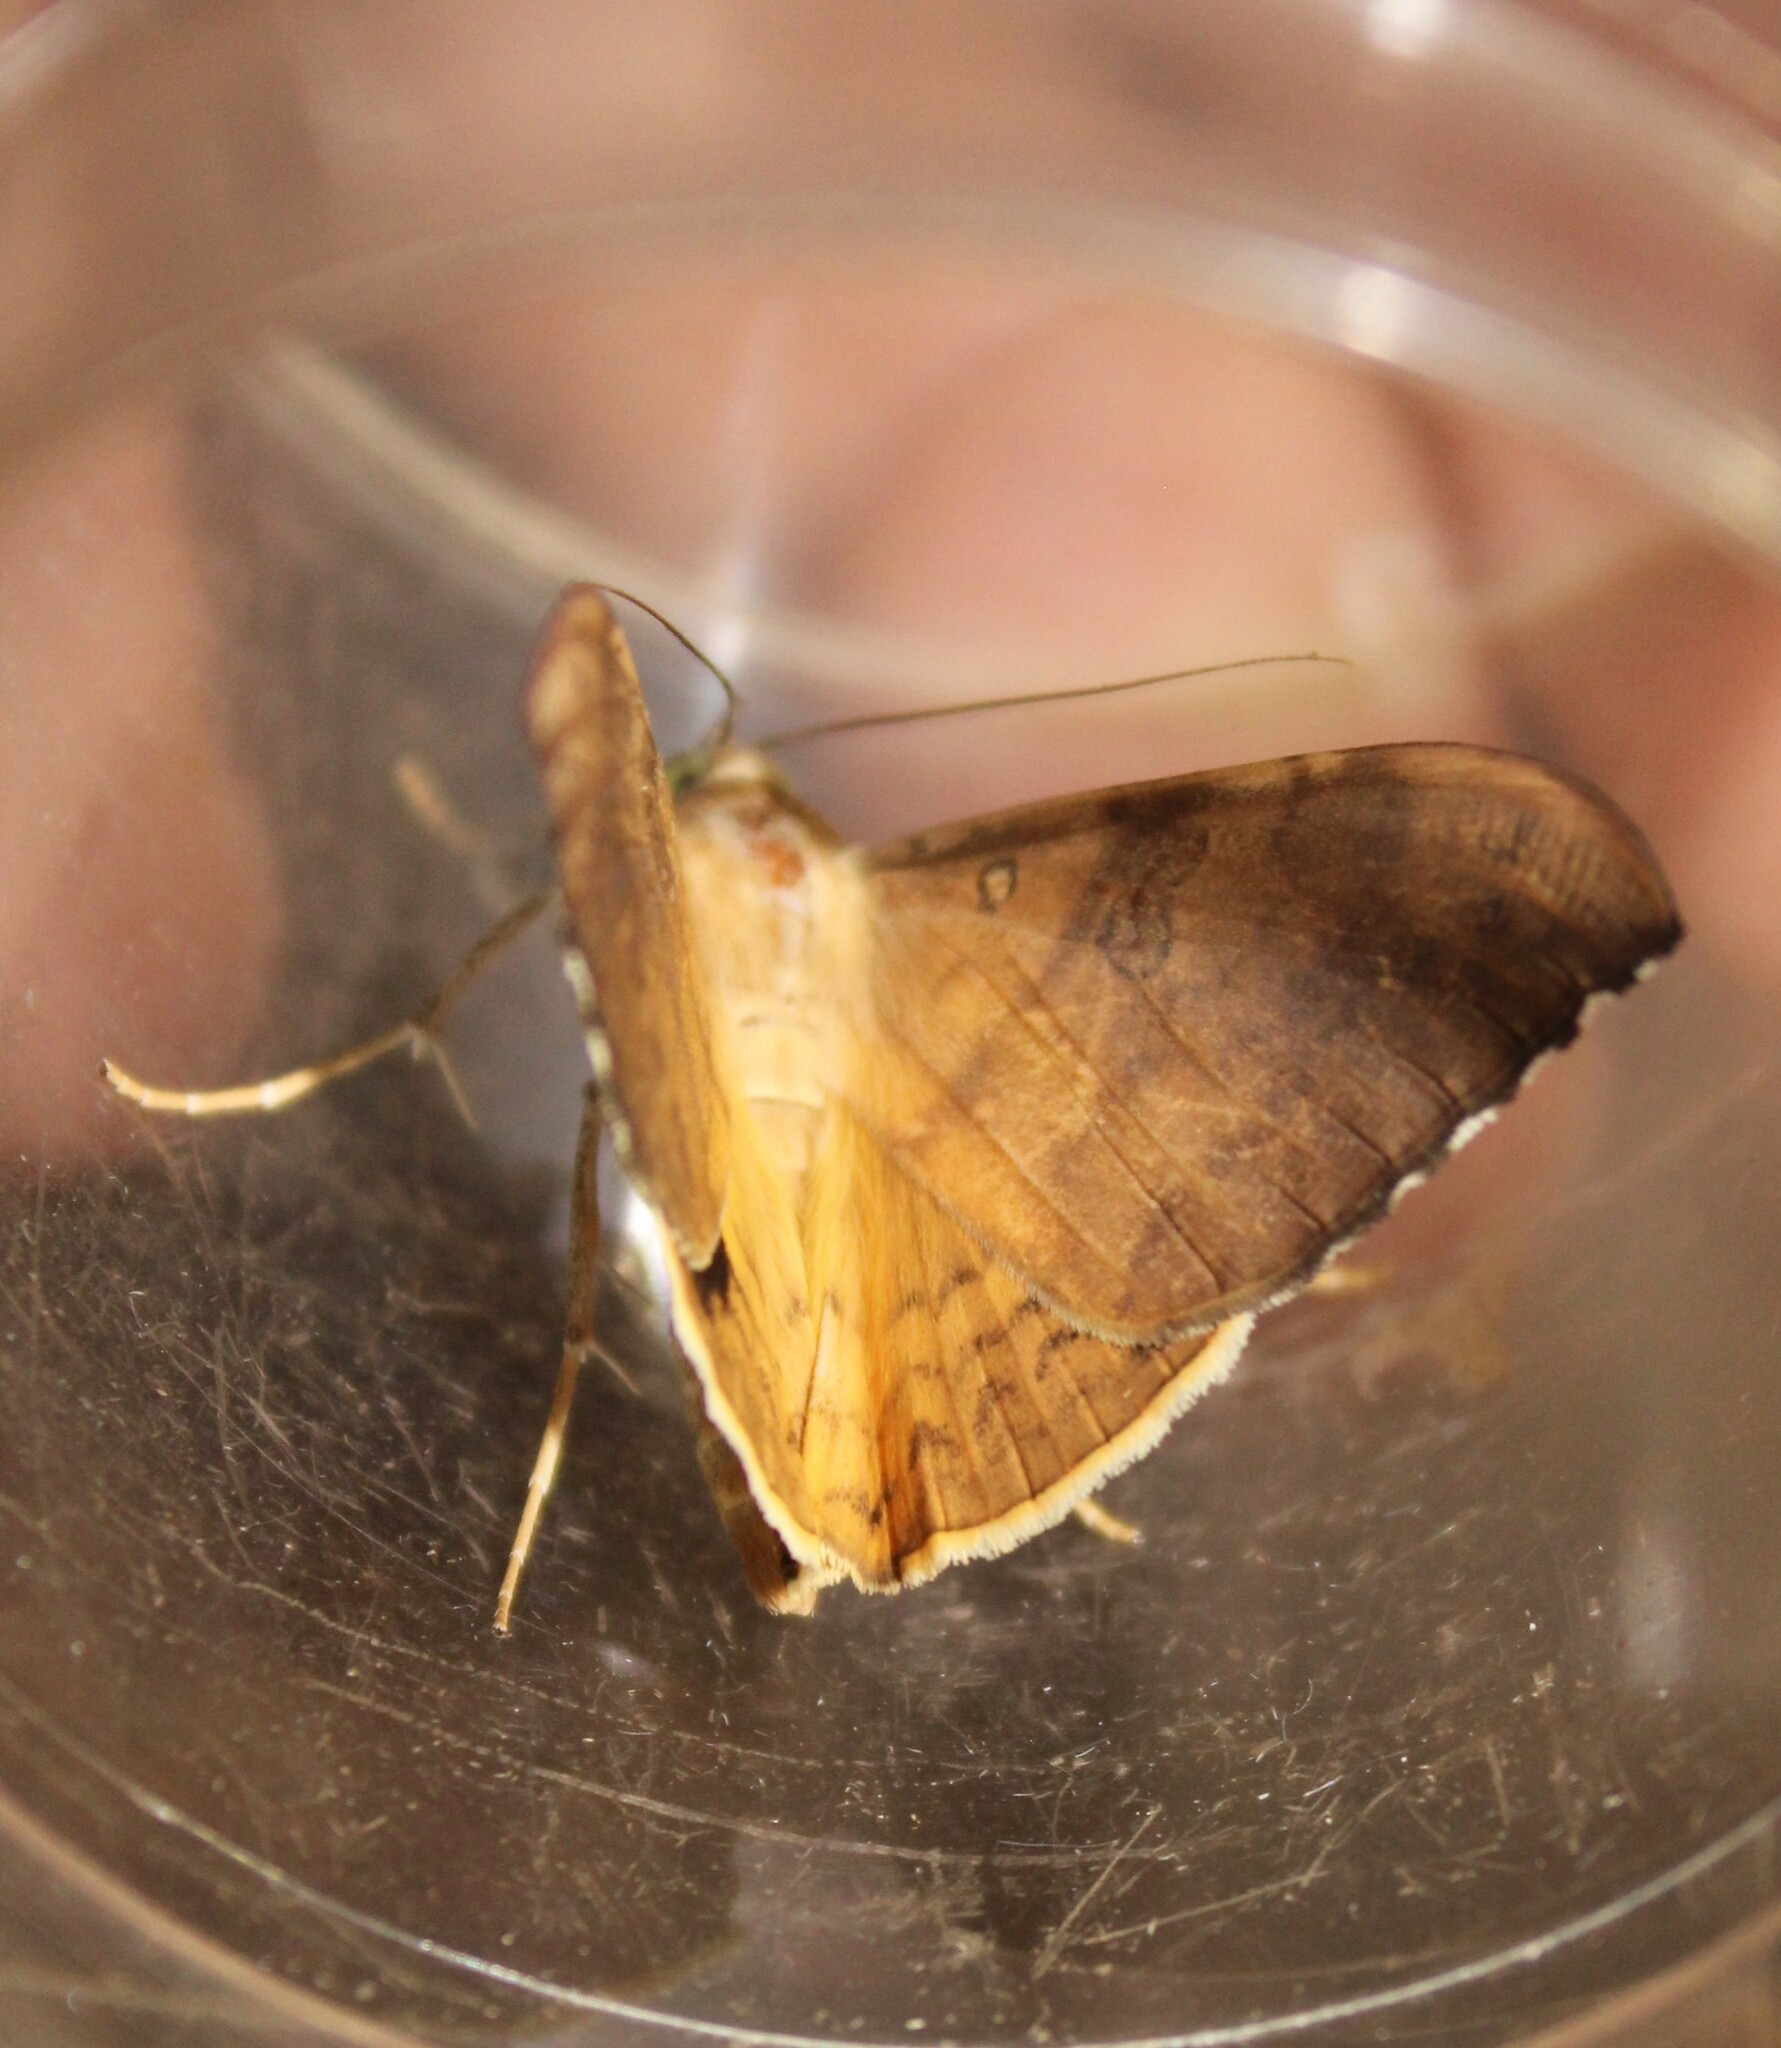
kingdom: Animalia
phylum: Arthropoda
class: Insecta
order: Lepidoptera
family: Erebidae
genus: Oxyodes
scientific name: Oxyodes scrobiculata
